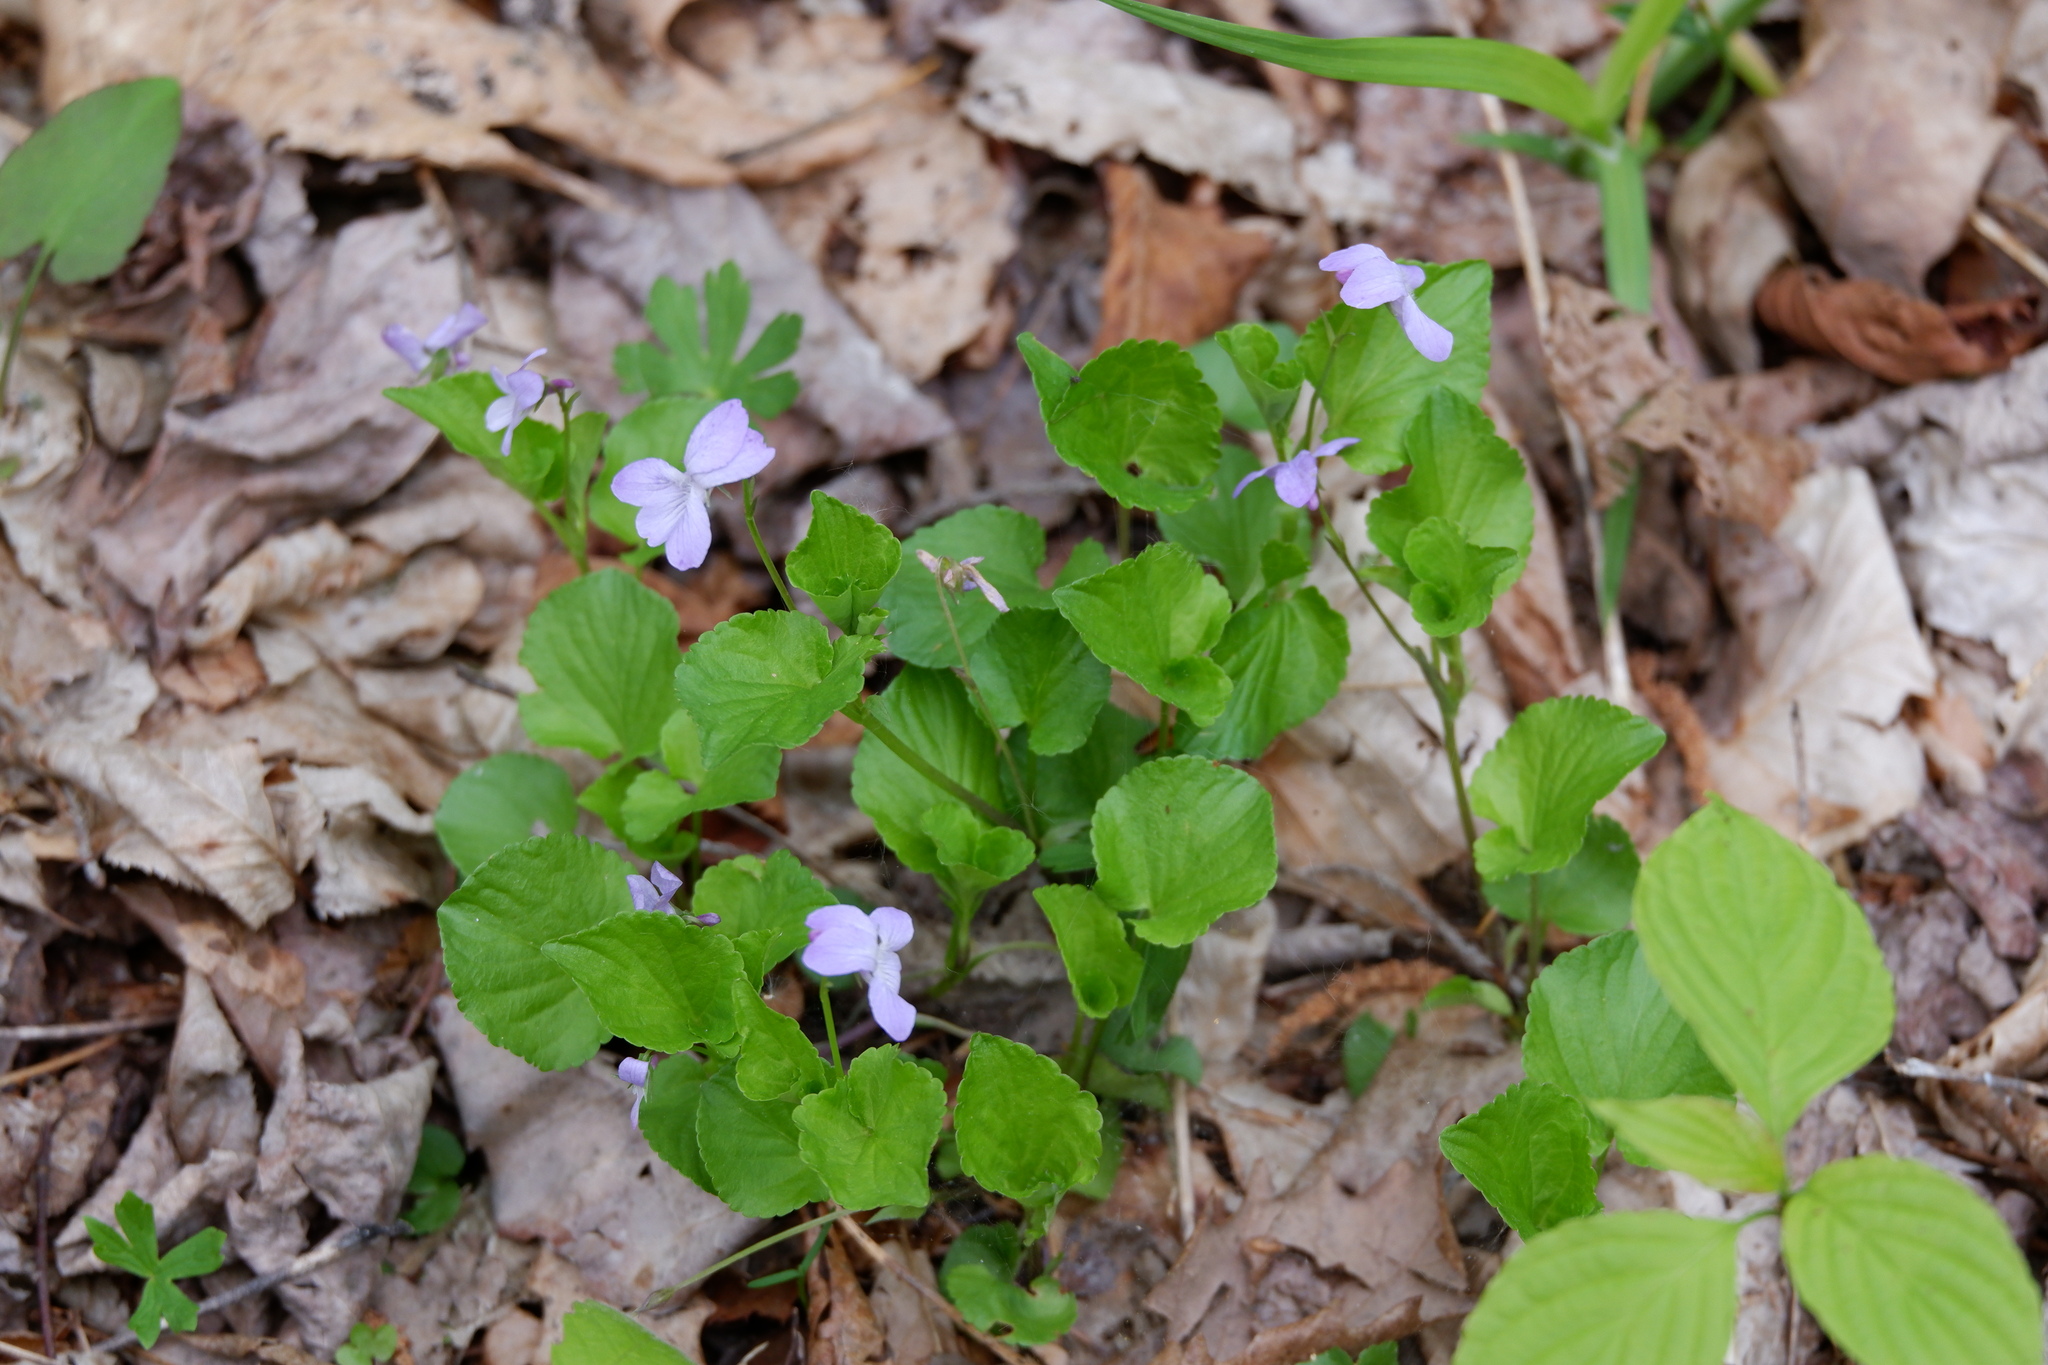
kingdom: Plantae
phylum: Tracheophyta
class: Magnoliopsida
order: Malpighiales
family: Violaceae
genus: Viola
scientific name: Viola labradorica
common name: Labrador violet
